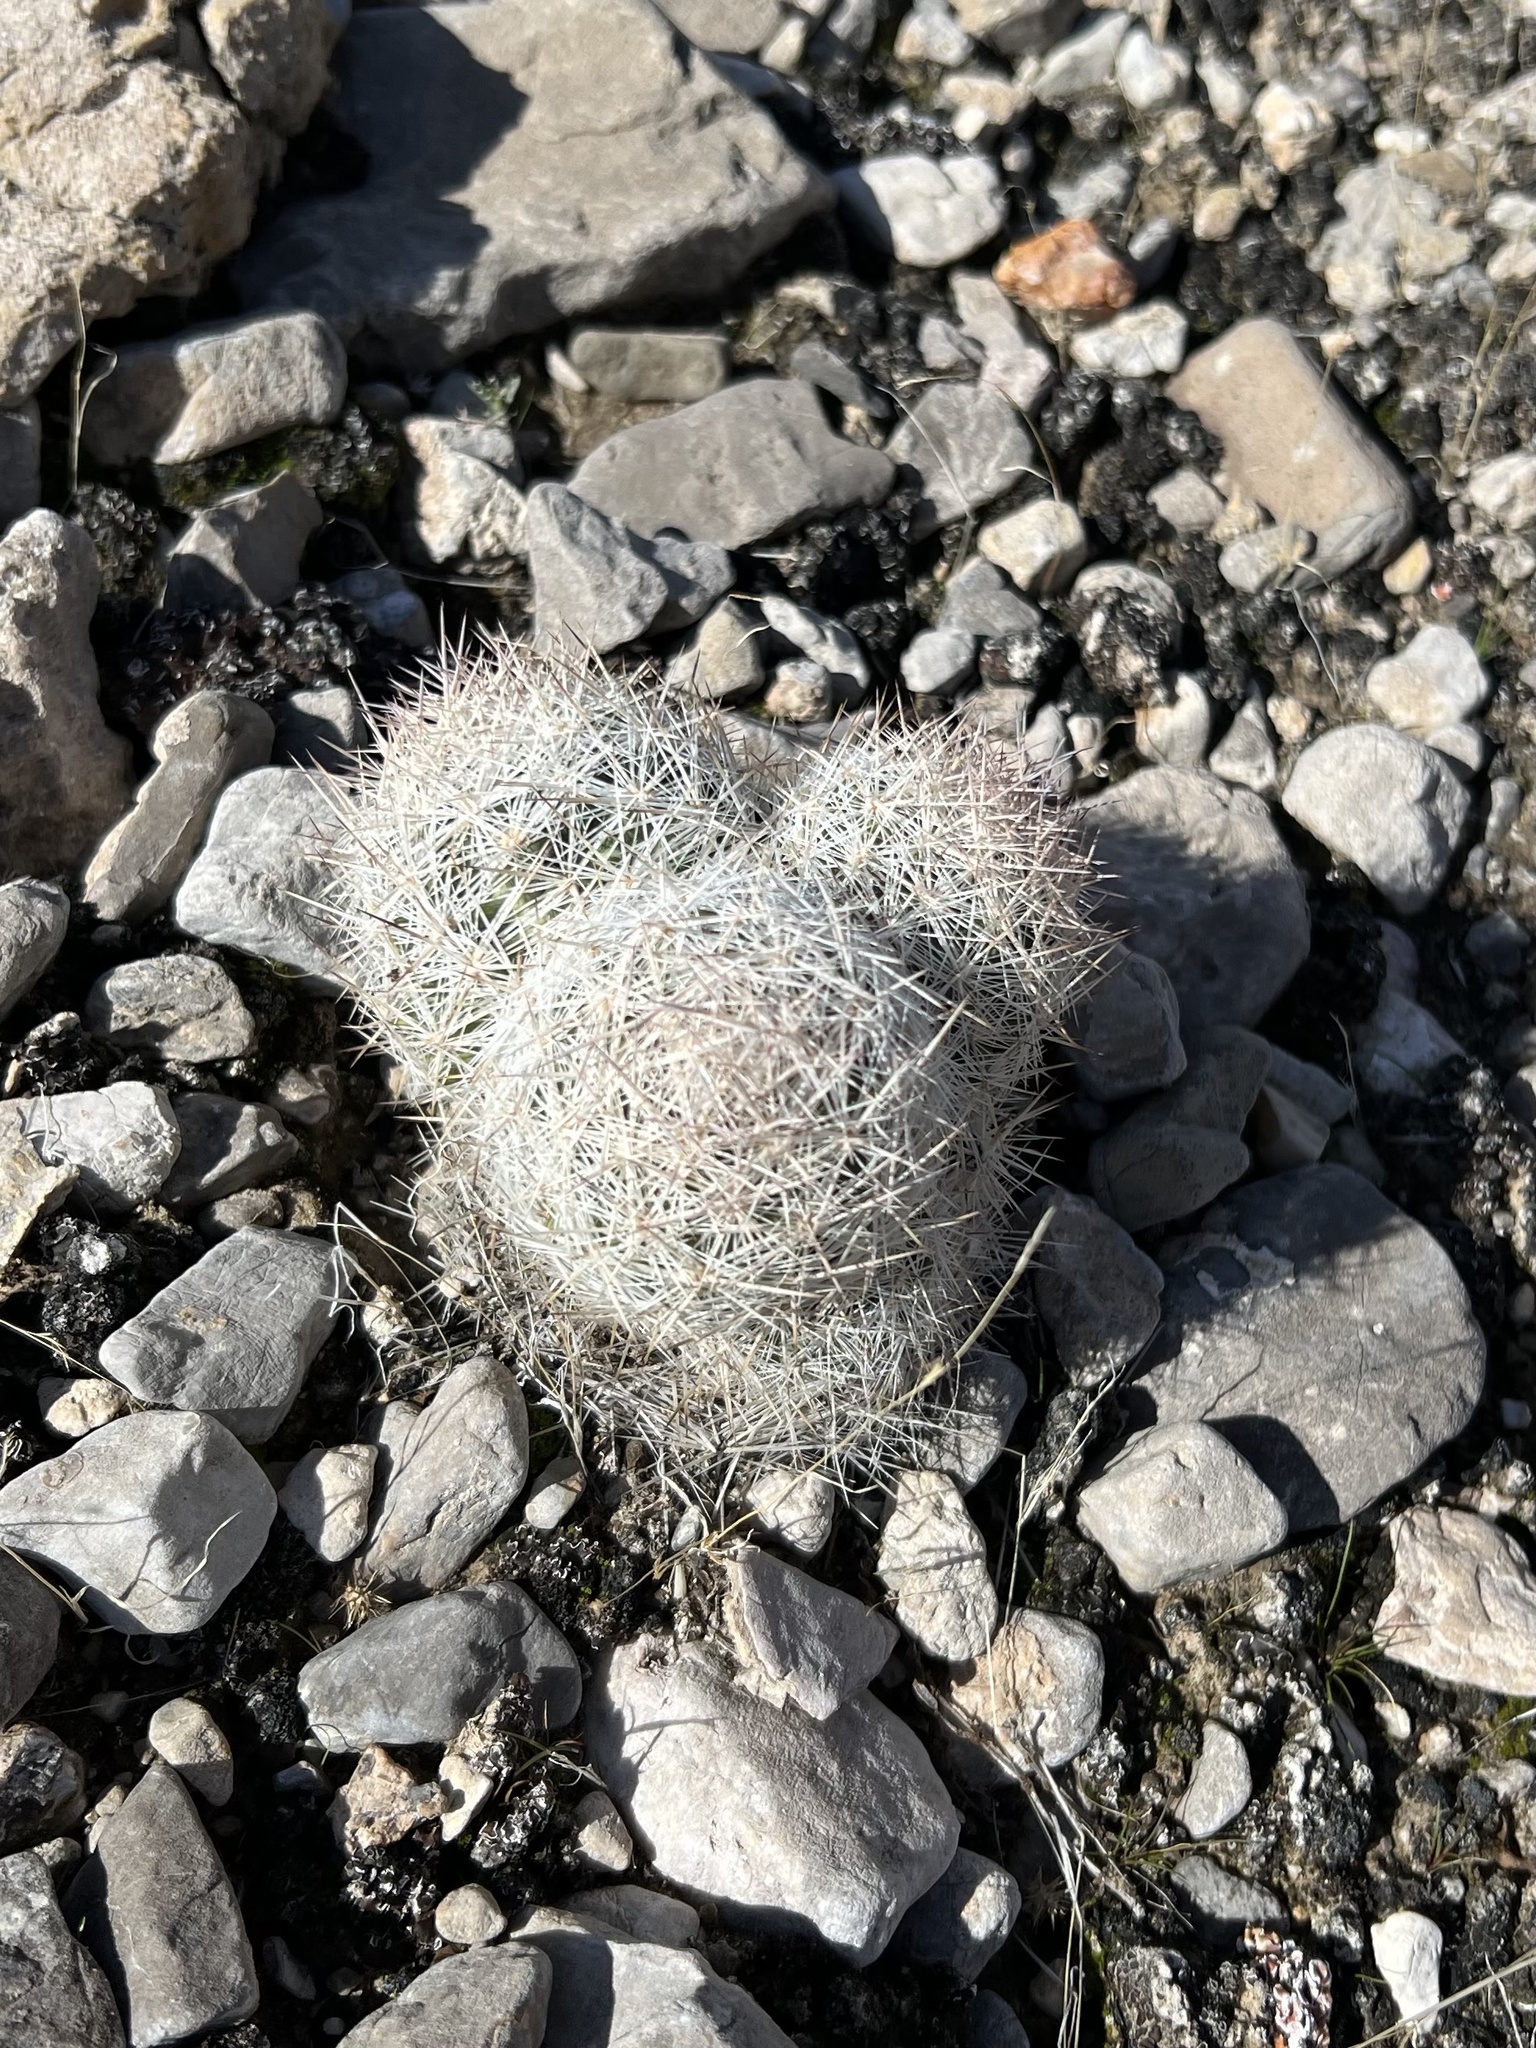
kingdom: Plantae
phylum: Tracheophyta
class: Magnoliopsida
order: Caryophyllales
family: Cactaceae
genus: Pelecyphora
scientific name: Pelecyphora dasyacantha
